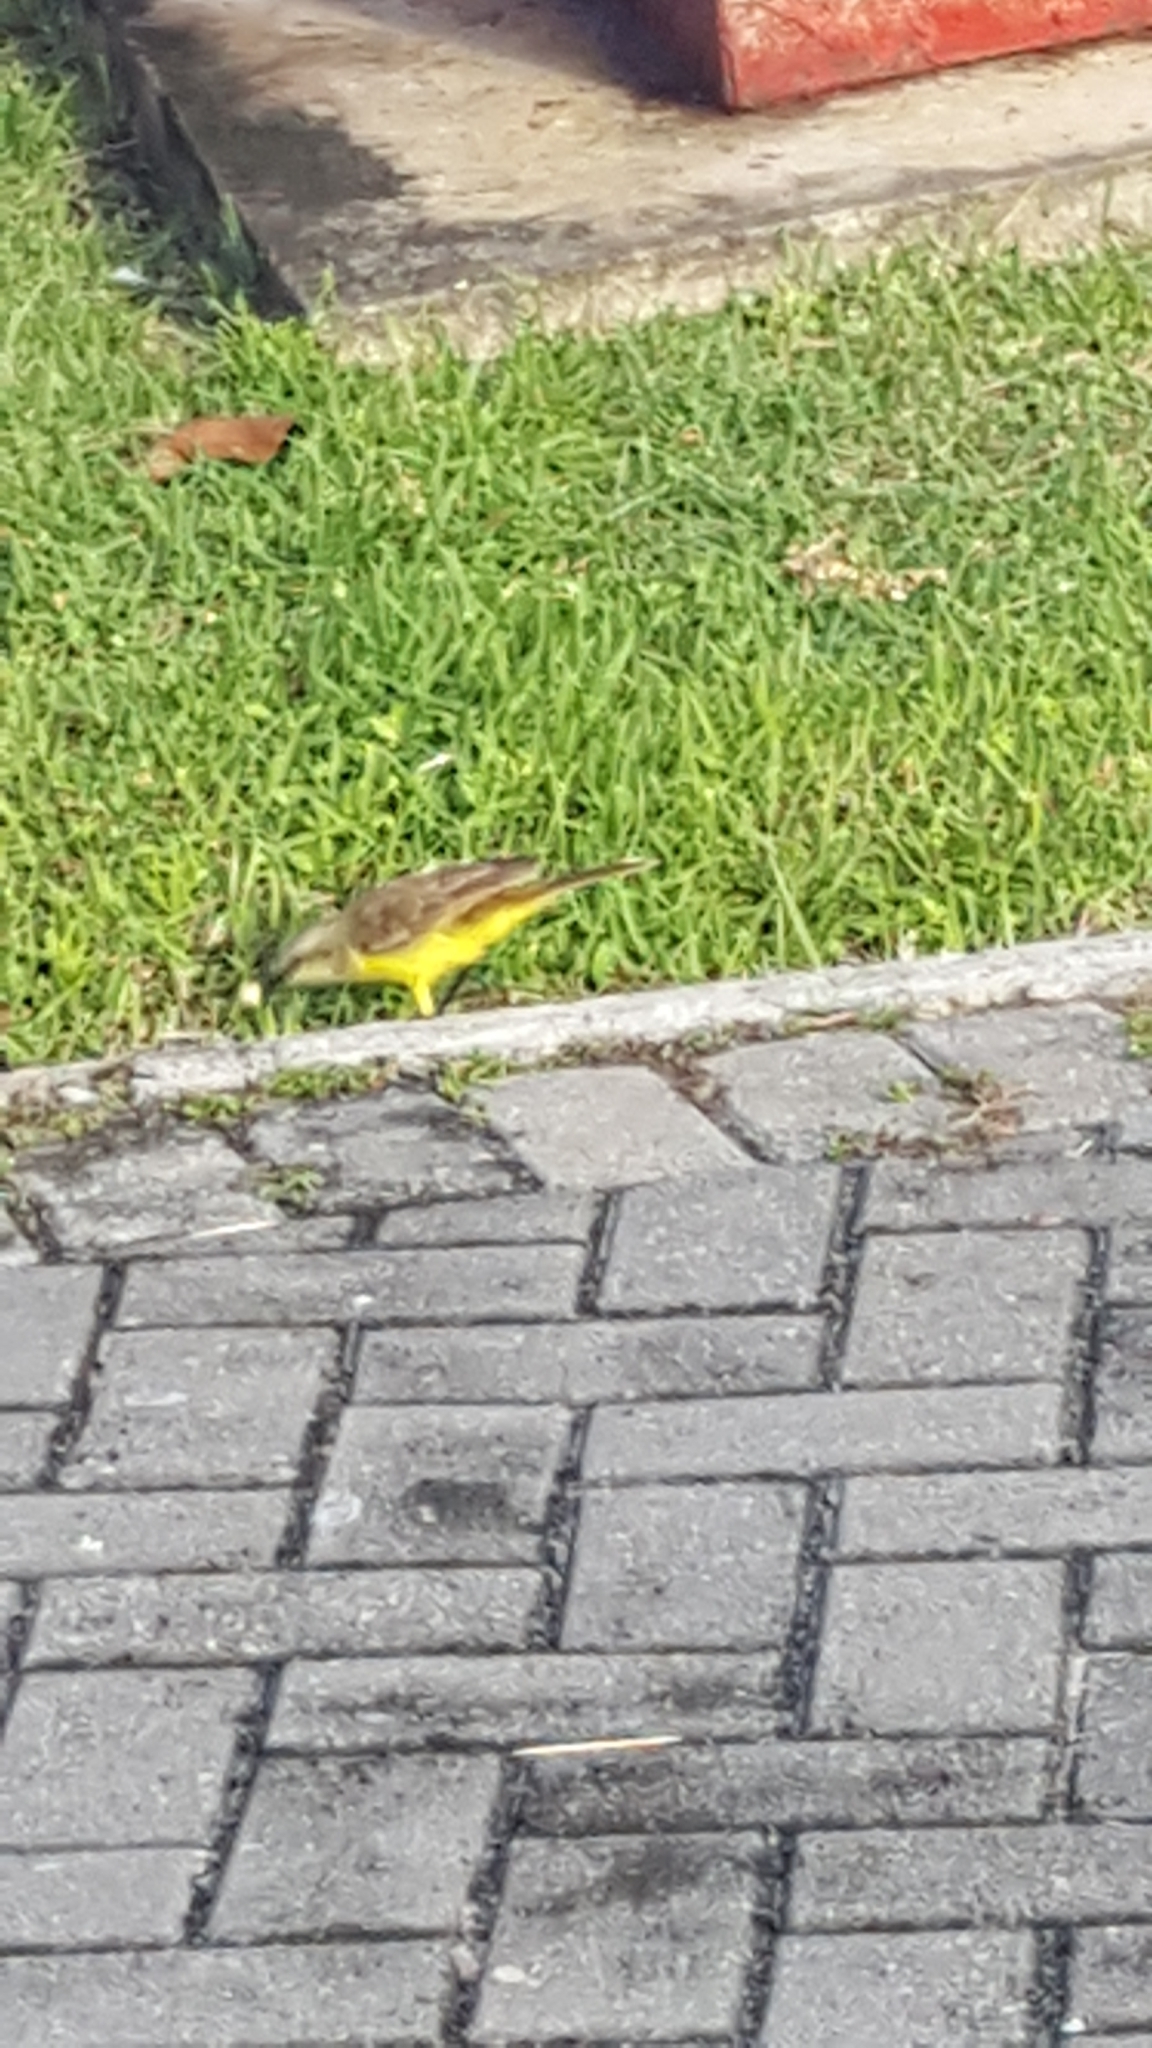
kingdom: Animalia
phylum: Chordata
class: Aves
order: Passeriformes
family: Tyrannidae
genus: Machetornis
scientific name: Machetornis rixosa
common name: Cattle tyrant
